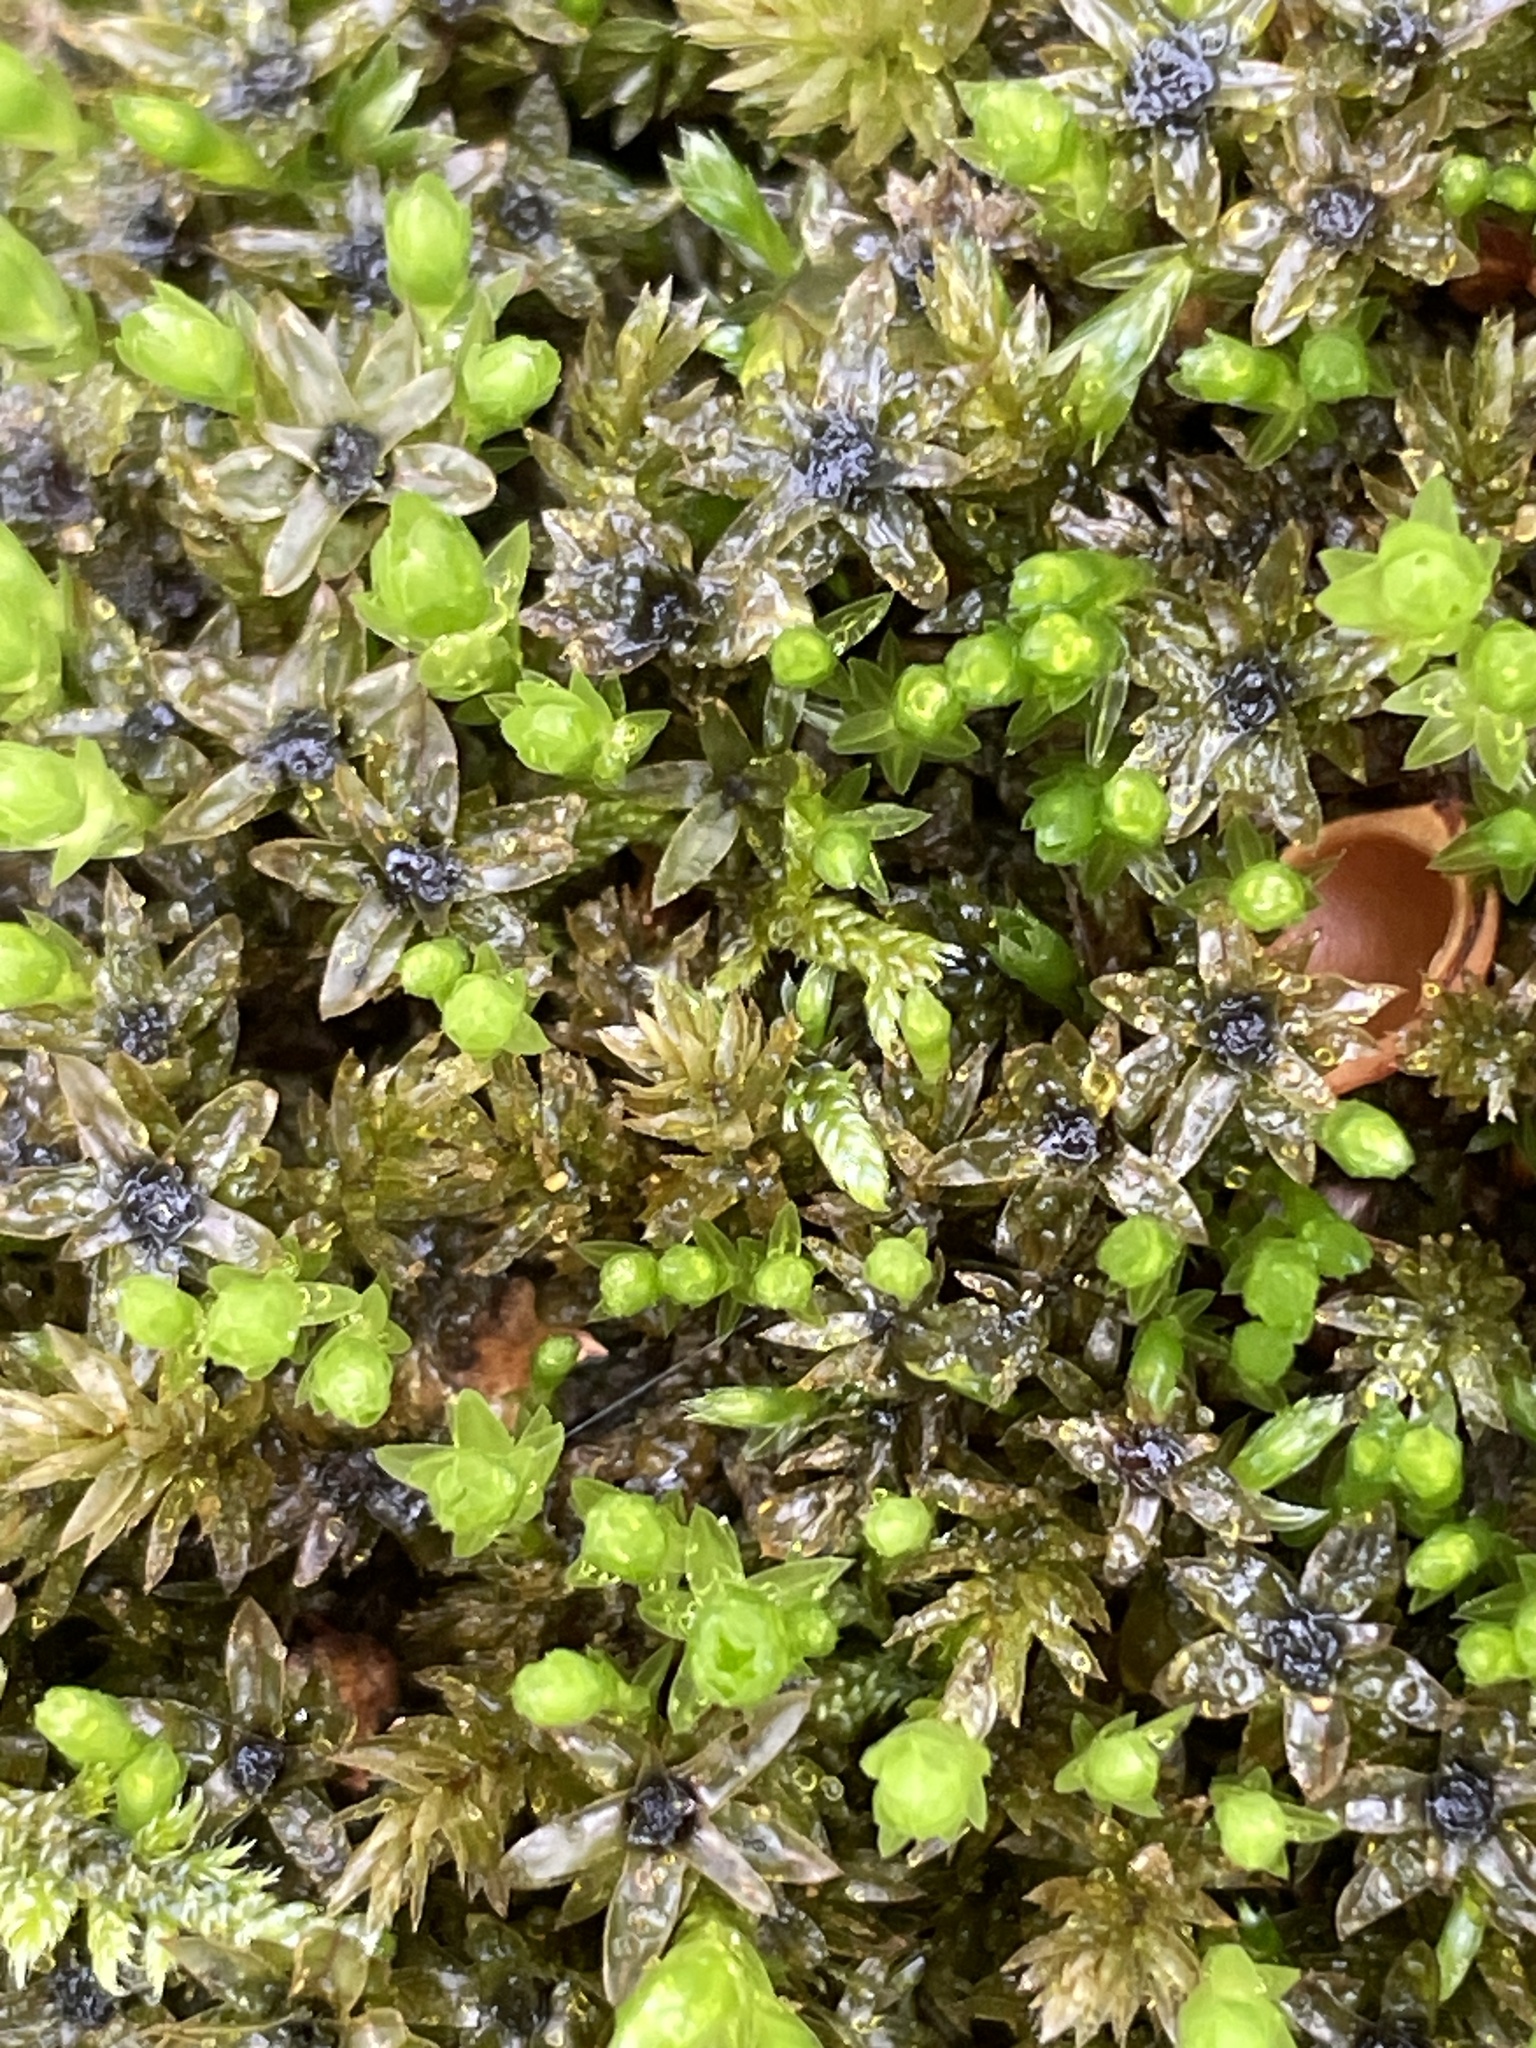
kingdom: Plantae
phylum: Bryophyta
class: Bryopsida
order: Bryales
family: Mniaceae
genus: Mnium
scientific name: Mnium hornum
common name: Swan's-neck leafy moss
